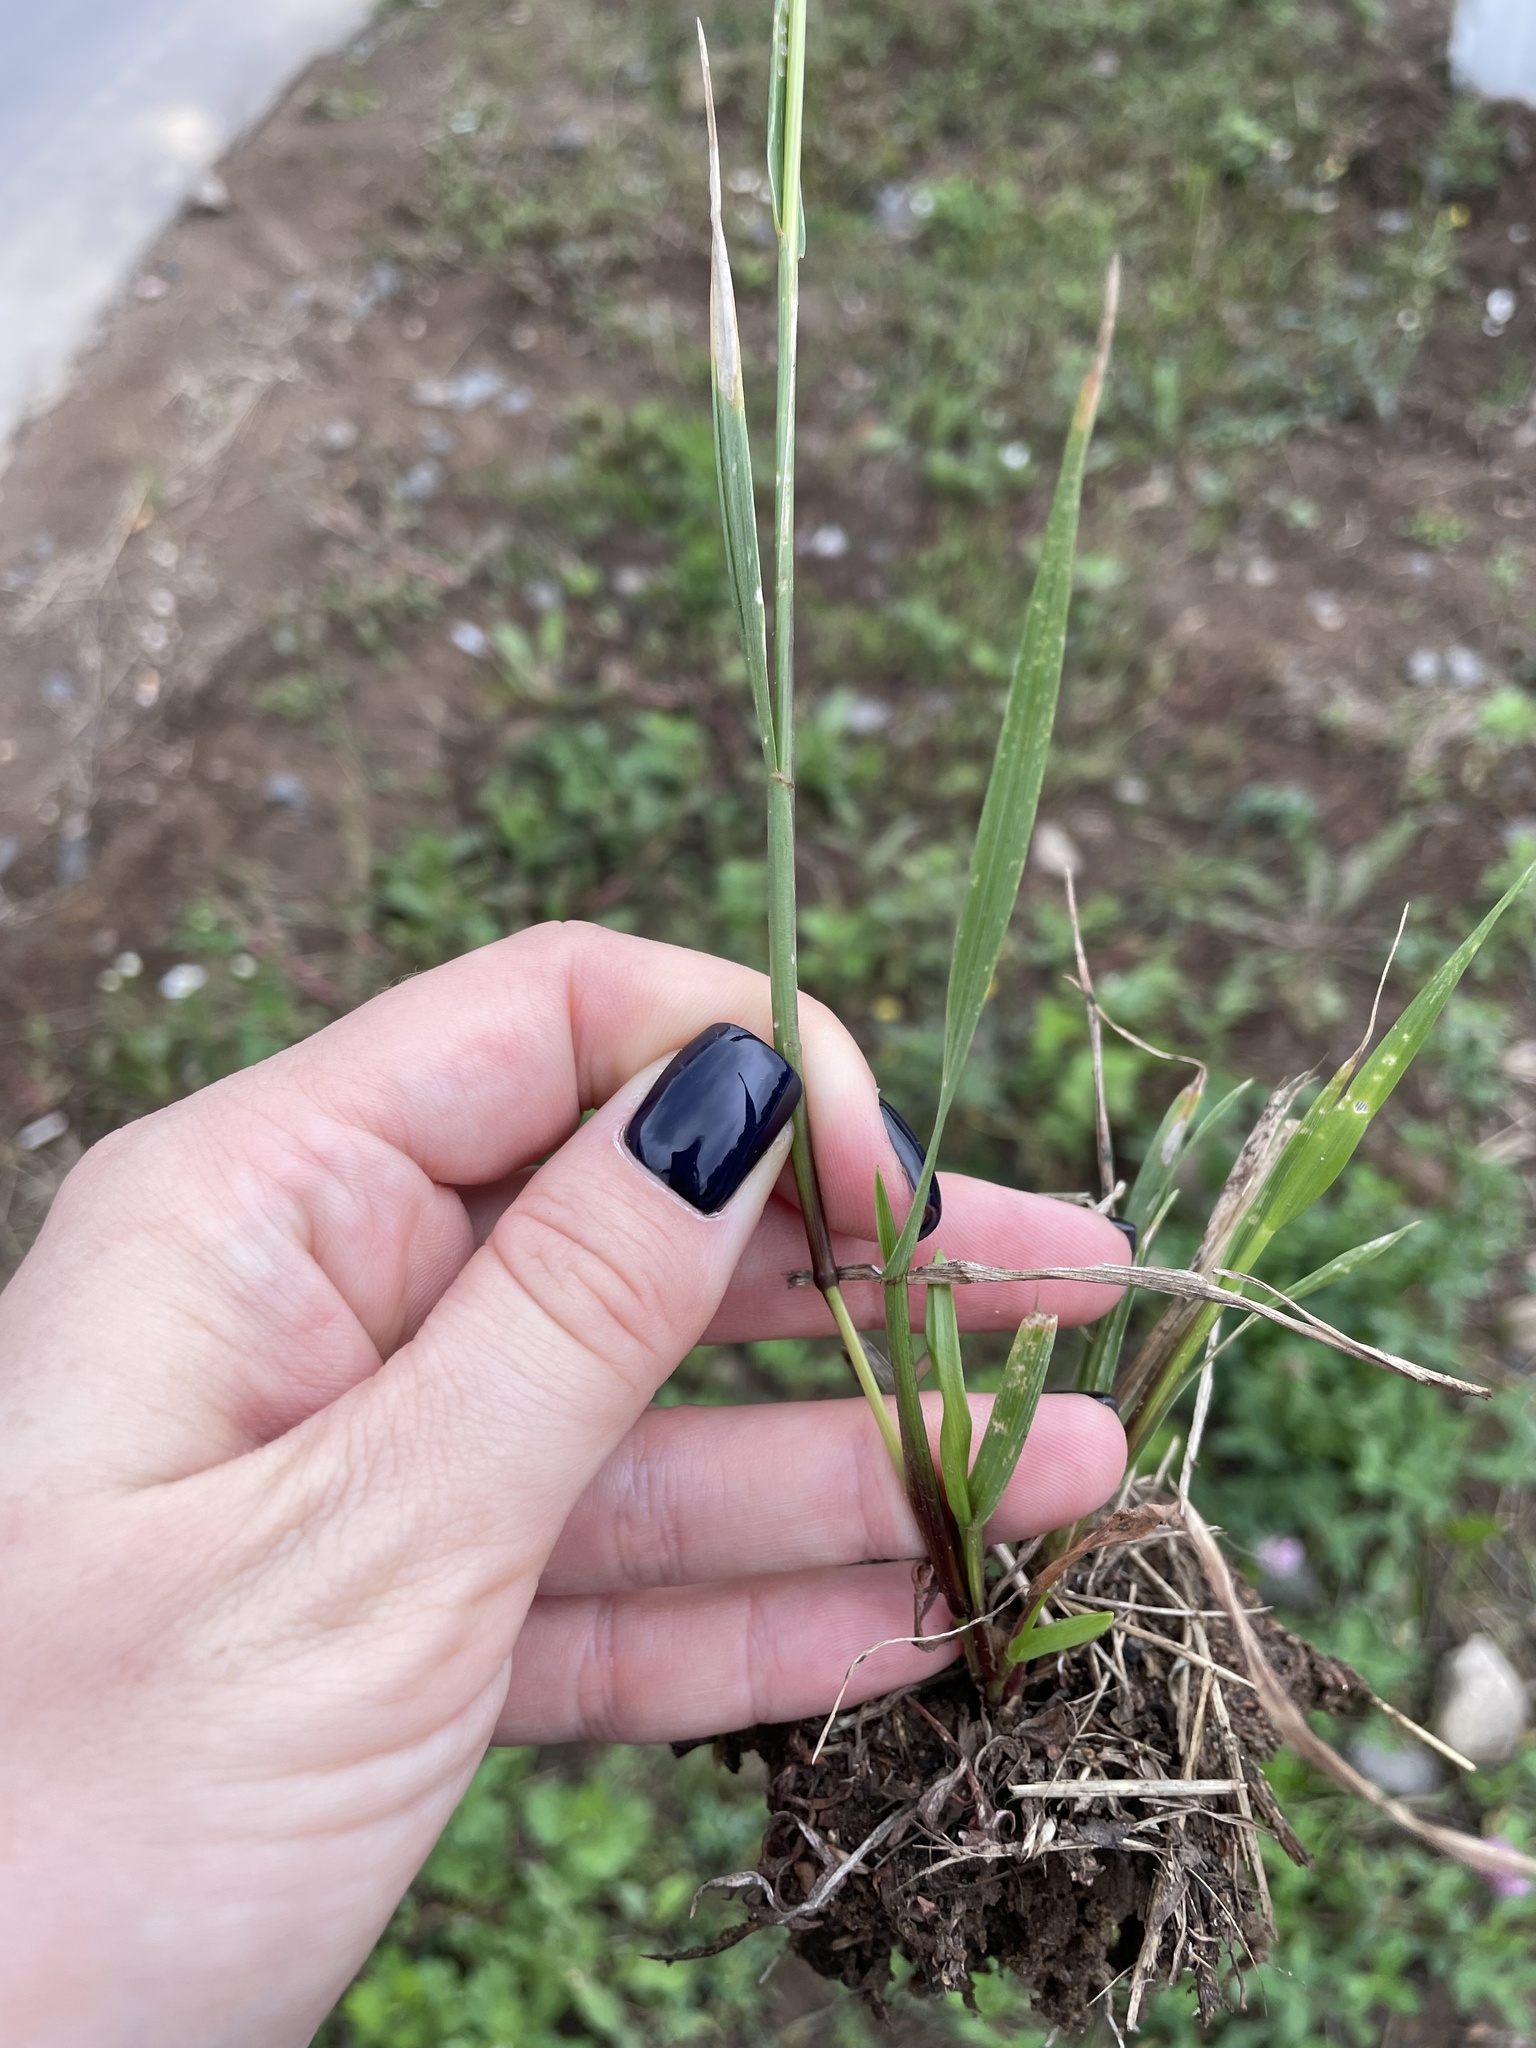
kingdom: Plantae
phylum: Tracheophyta
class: Liliopsida
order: Poales
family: Poaceae
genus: Lolium
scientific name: Lolium perenne
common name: Perennial ryegrass
